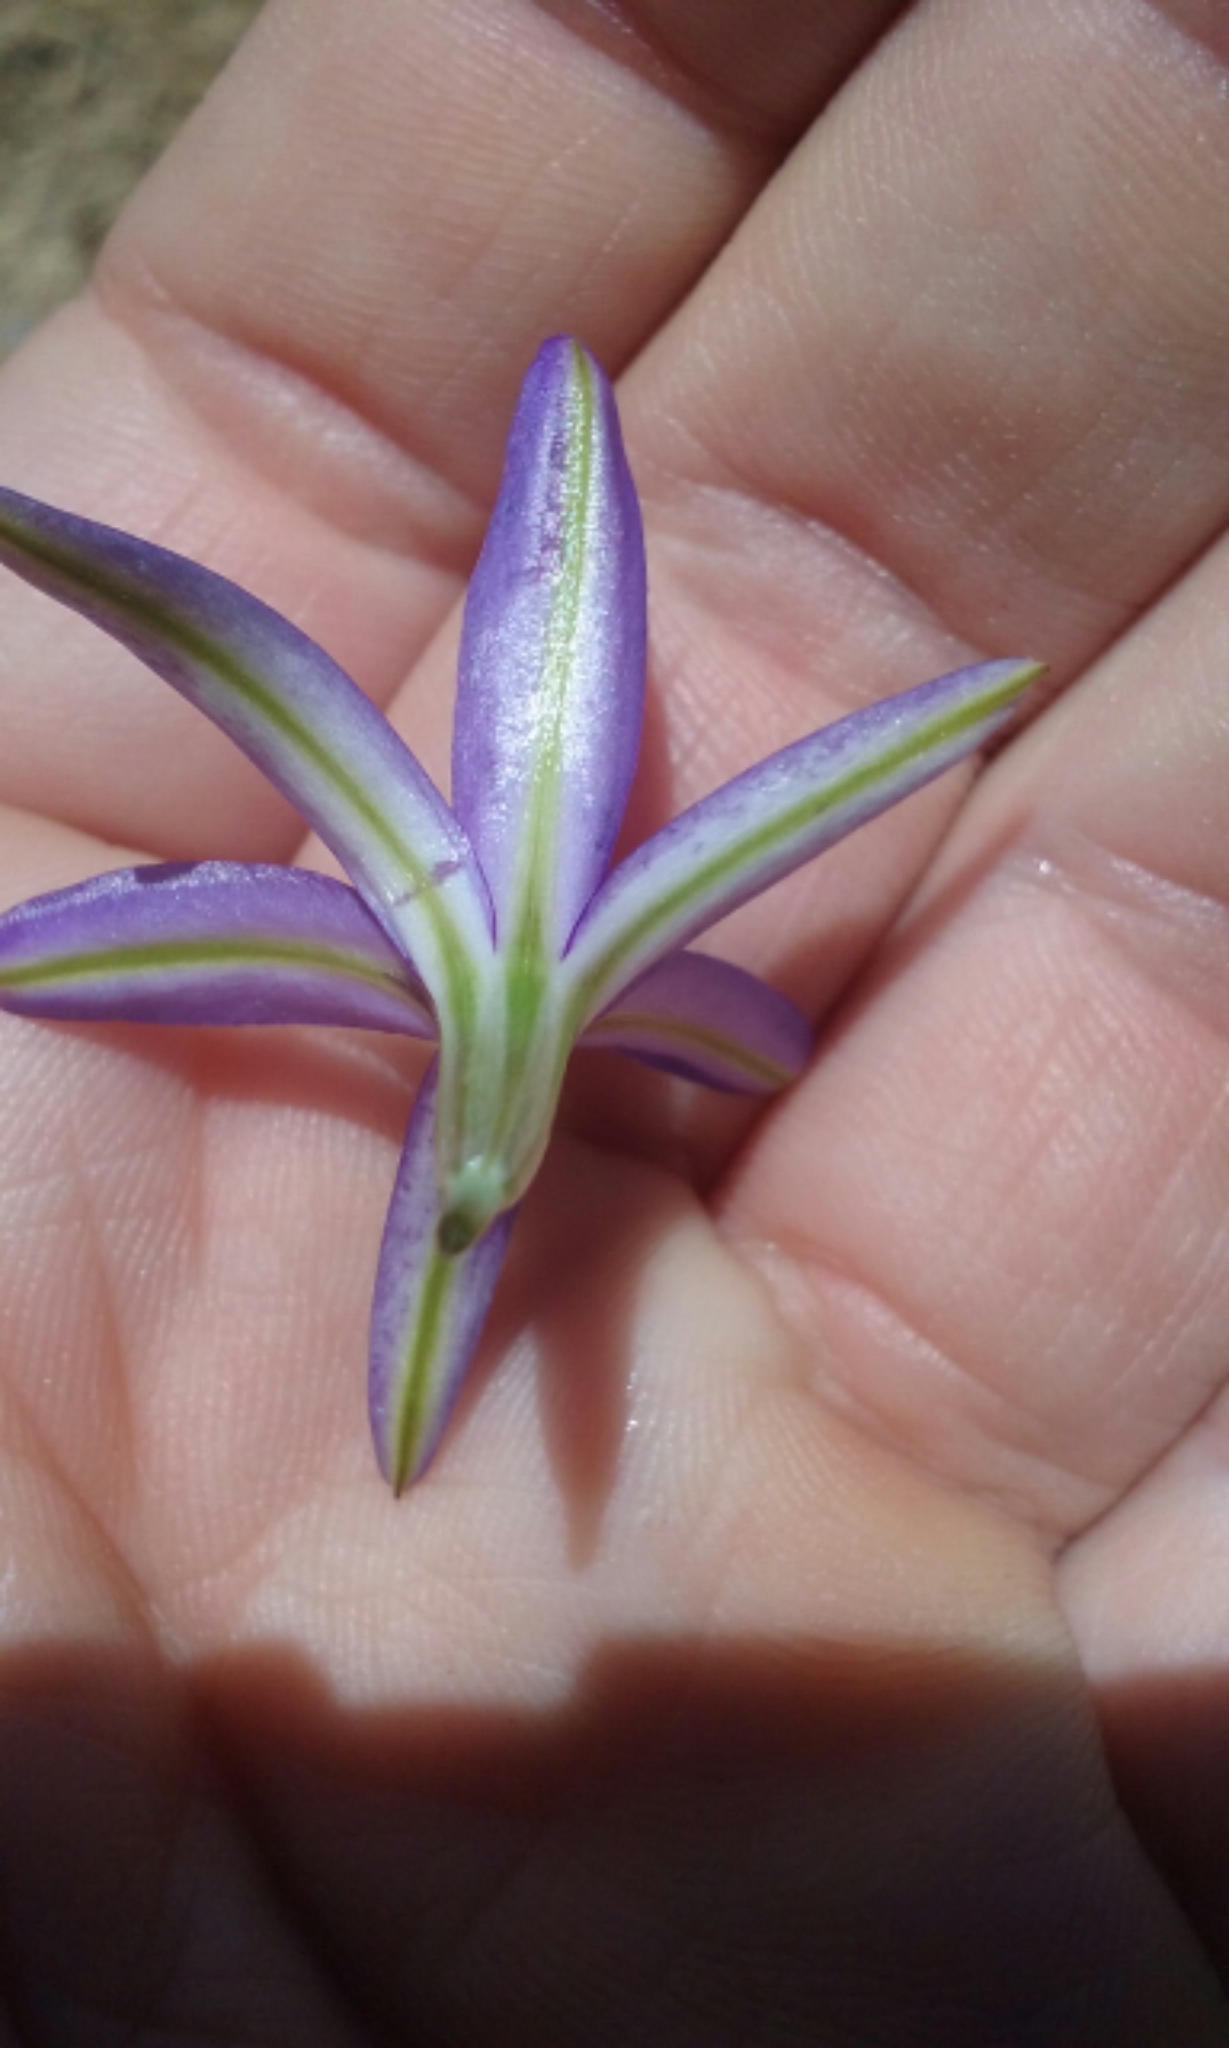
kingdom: Plantae
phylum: Tracheophyta
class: Liliopsida
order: Asparagales
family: Asparagaceae
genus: Brodiaea
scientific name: Brodiaea californica
